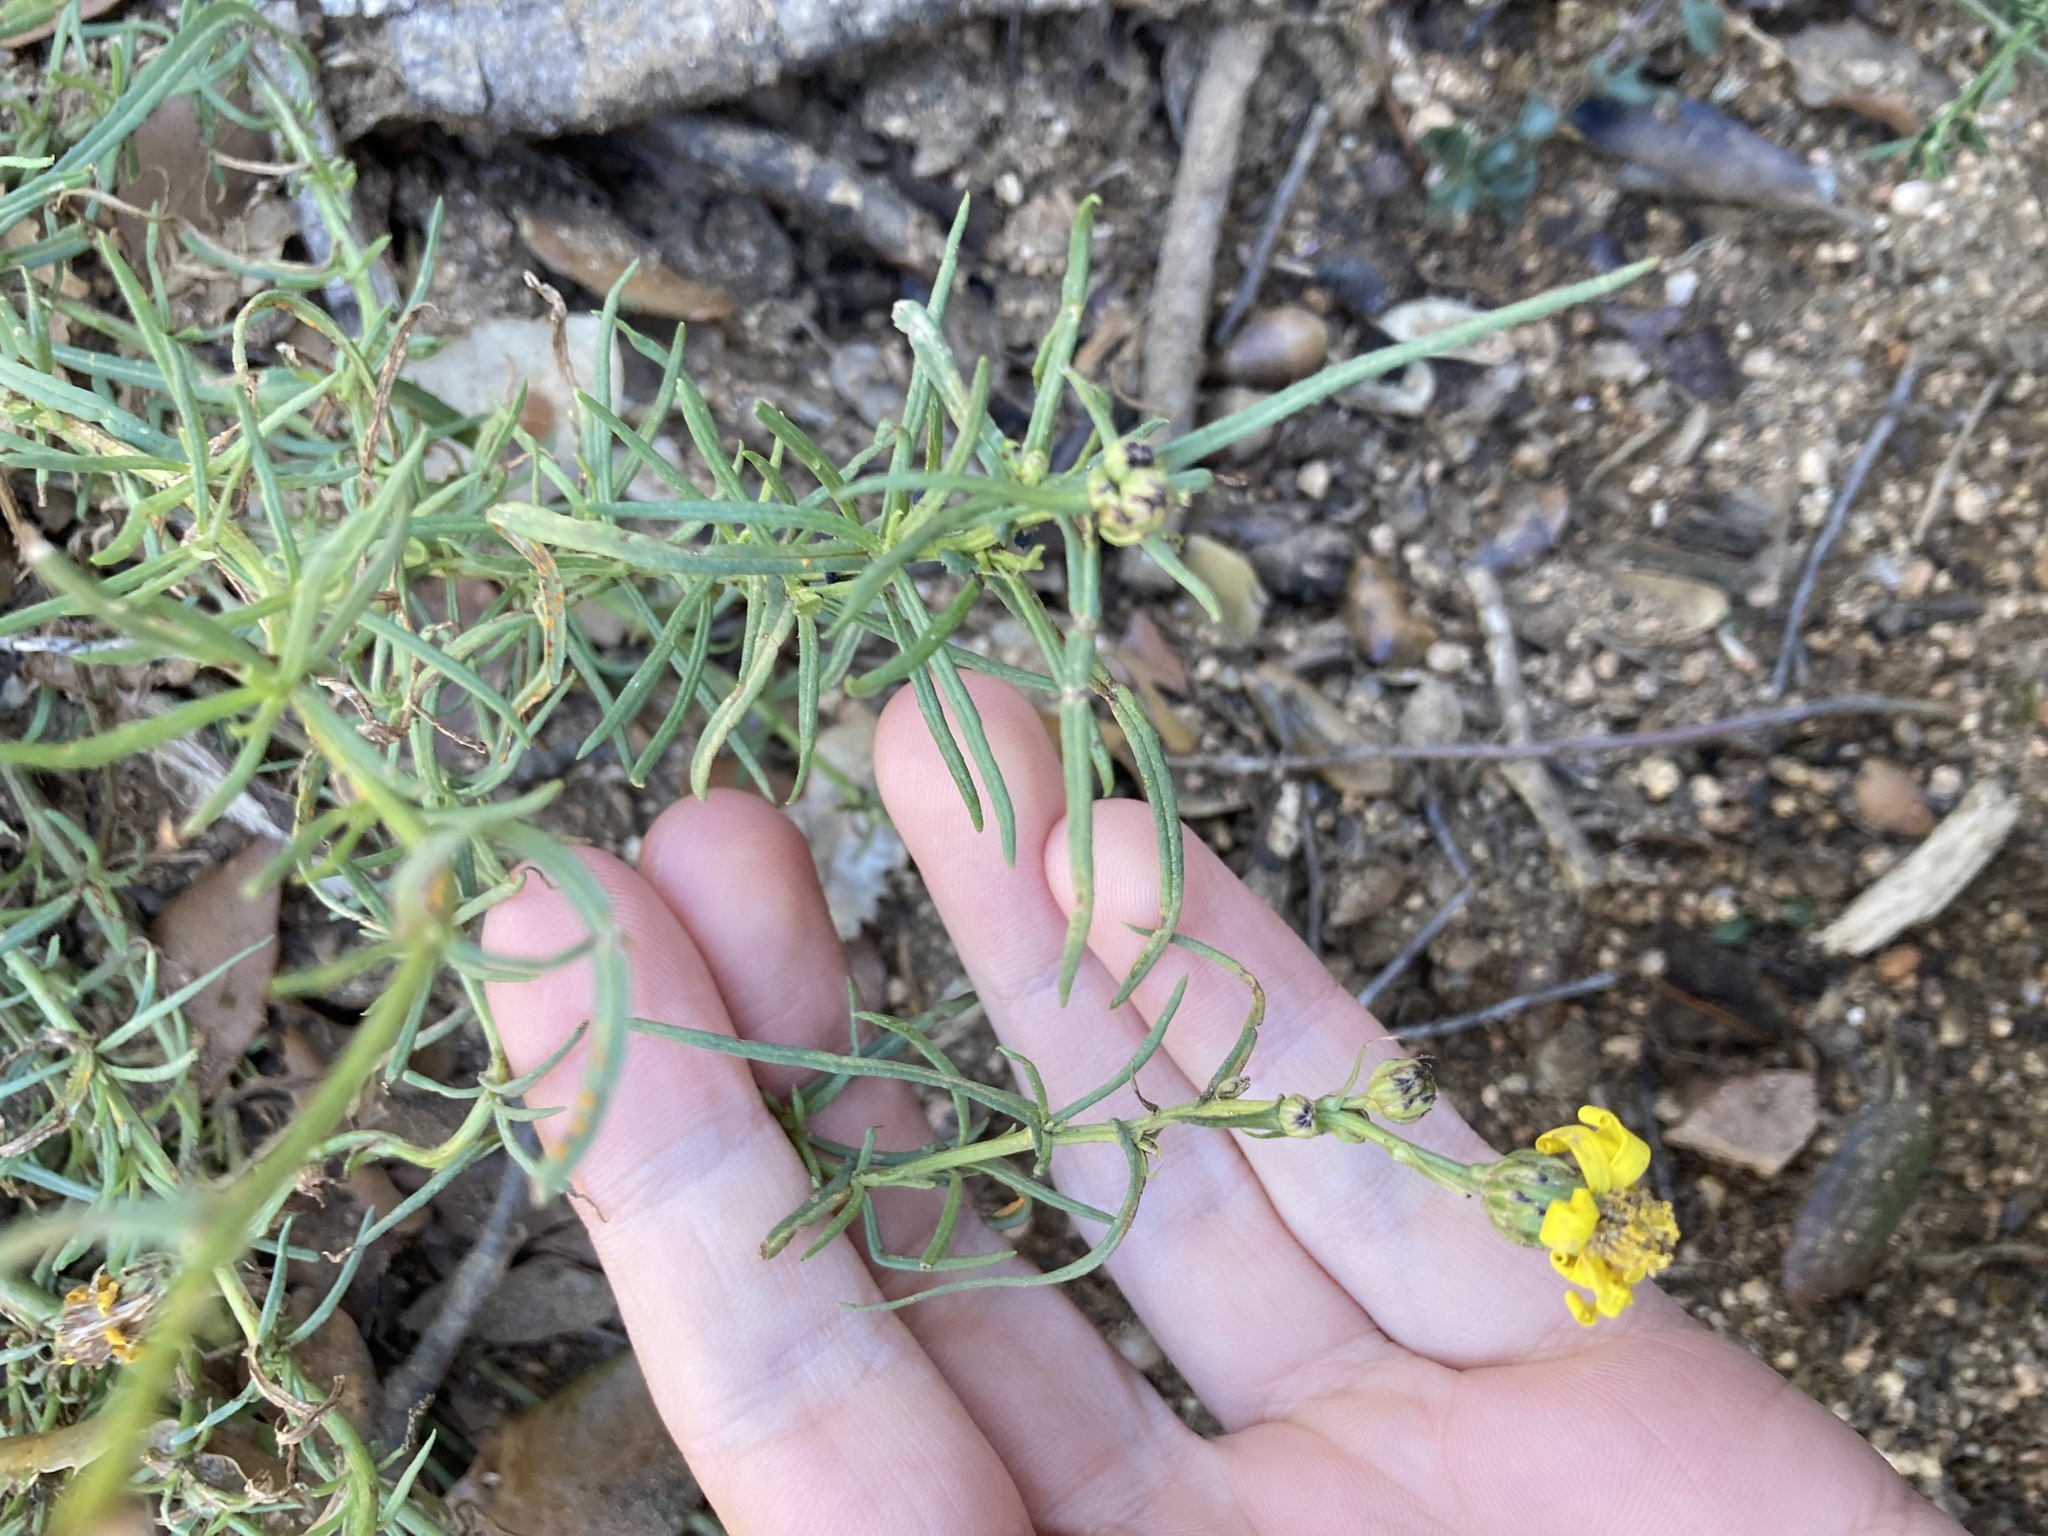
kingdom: Plantae
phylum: Tracheophyta
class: Magnoliopsida
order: Asterales
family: Asteraceae
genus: Senecio
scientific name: Senecio inaequidens
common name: Narrow-leaved ragwort
